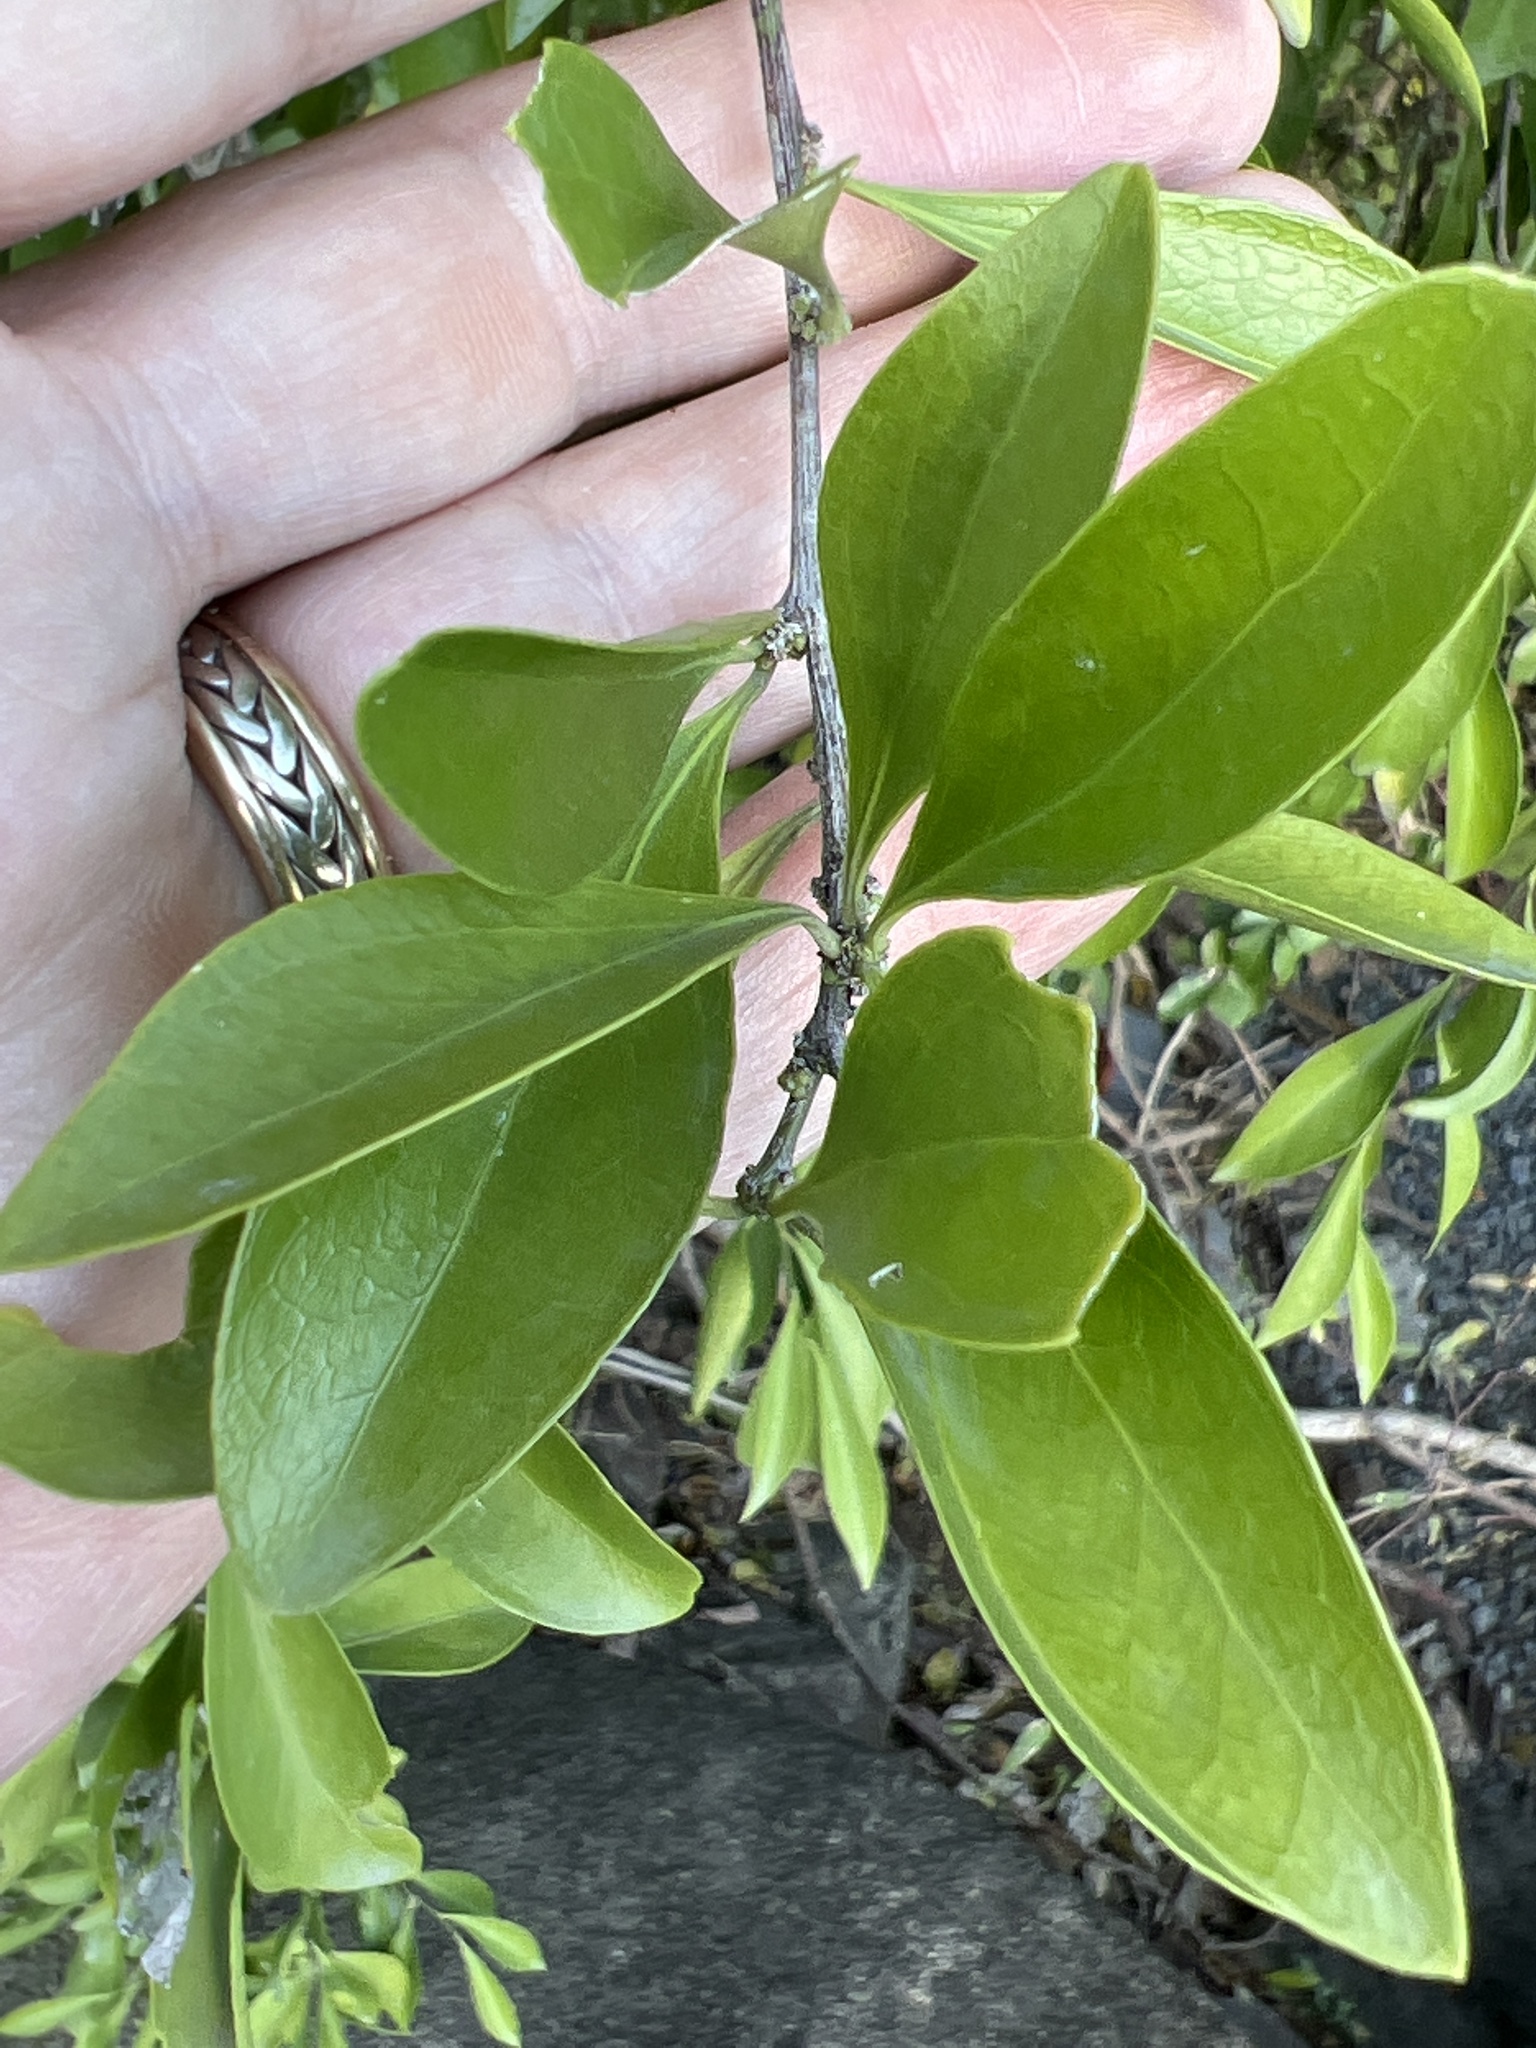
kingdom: Plantae
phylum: Tracheophyta
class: Magnoliopsida
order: Celastrales
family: Celastraceae
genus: Schaefferia
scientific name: Schaefferia frutescens
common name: Boxwood
